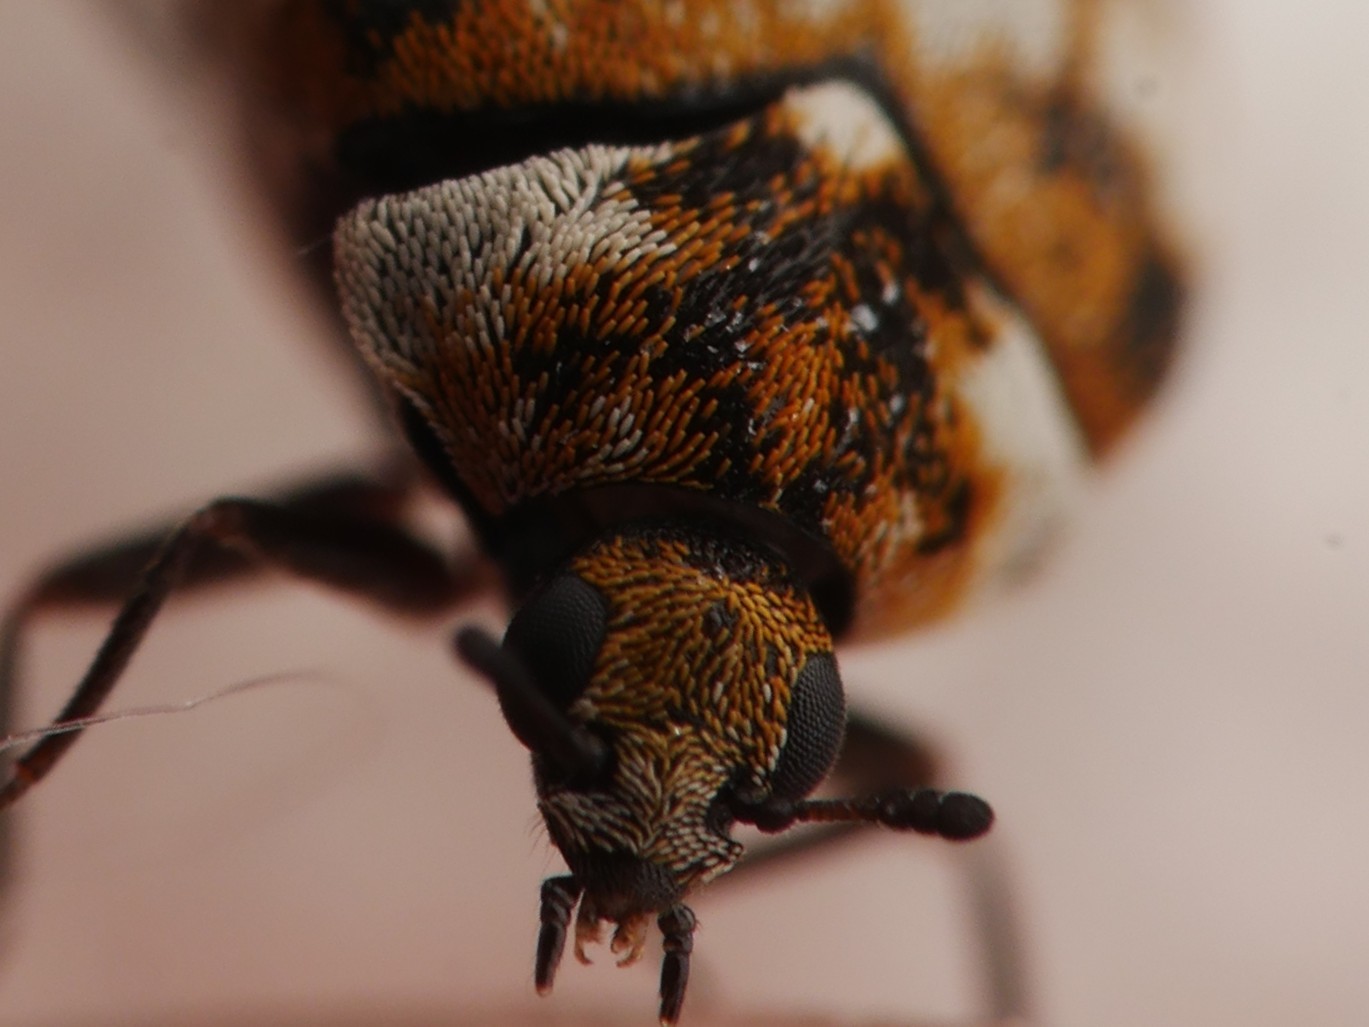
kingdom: Animalia
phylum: Arthropoda
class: Insecta
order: Coleoptera
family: Dermestidae
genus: Anthrenus
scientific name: Anthrenus verbasci
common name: Varied carpet beetle
